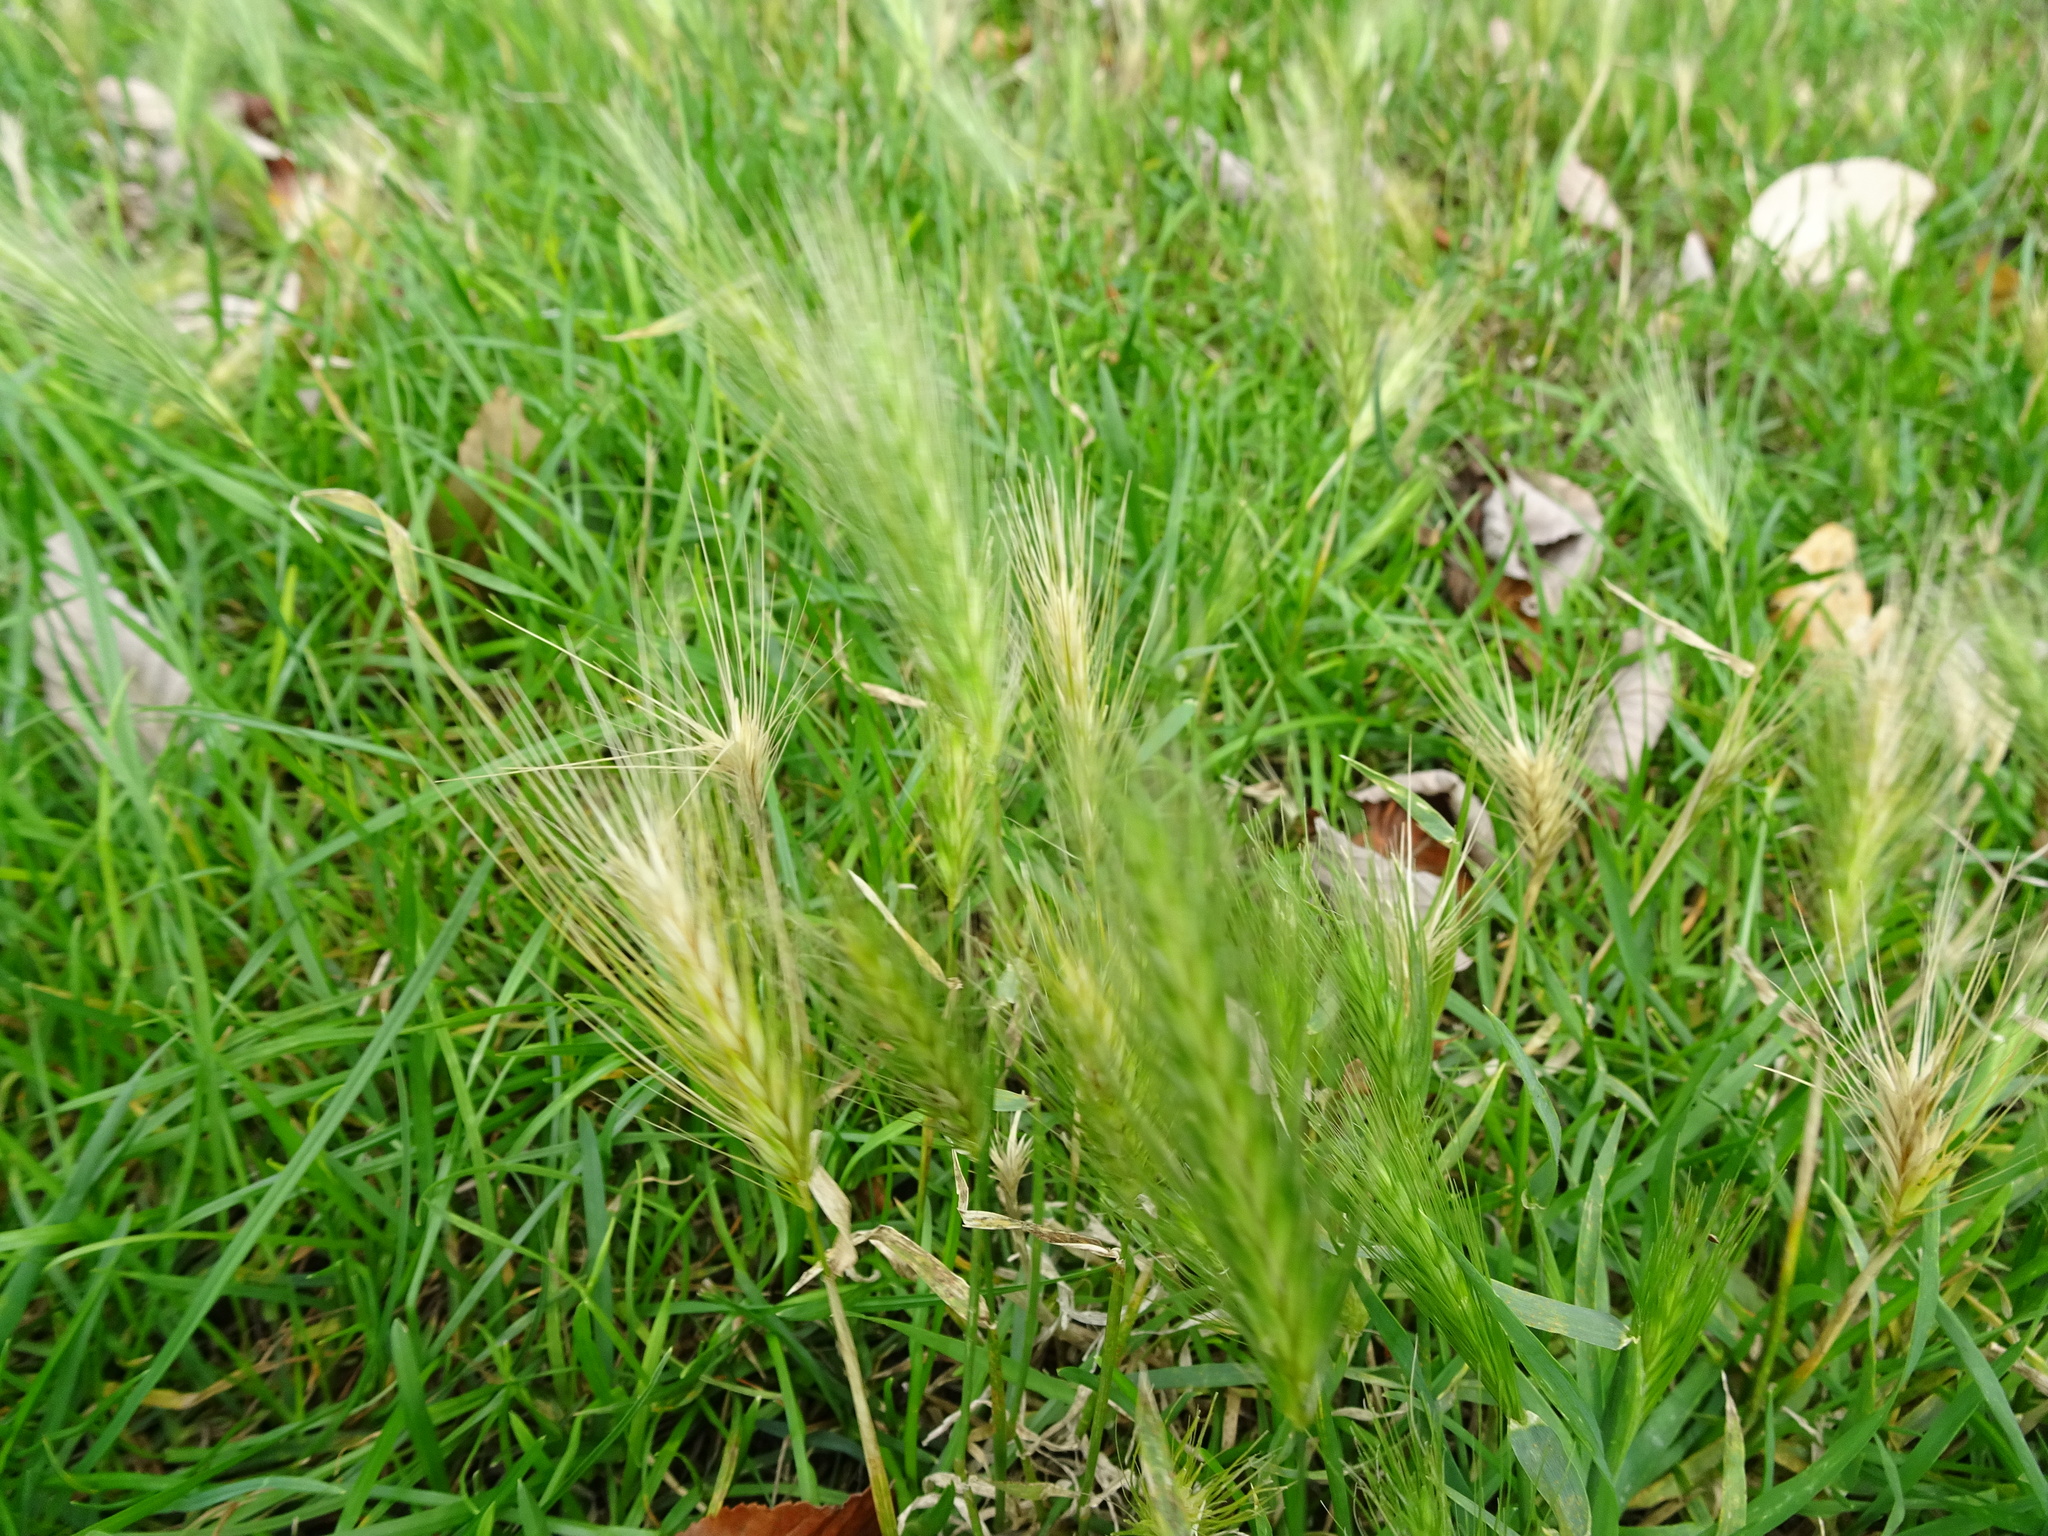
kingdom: Plantae
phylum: Tracheophyta
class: Liliopsida
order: Poales
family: Poaceae
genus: Hordeum
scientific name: Hordeum murinum
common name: Wall barley
